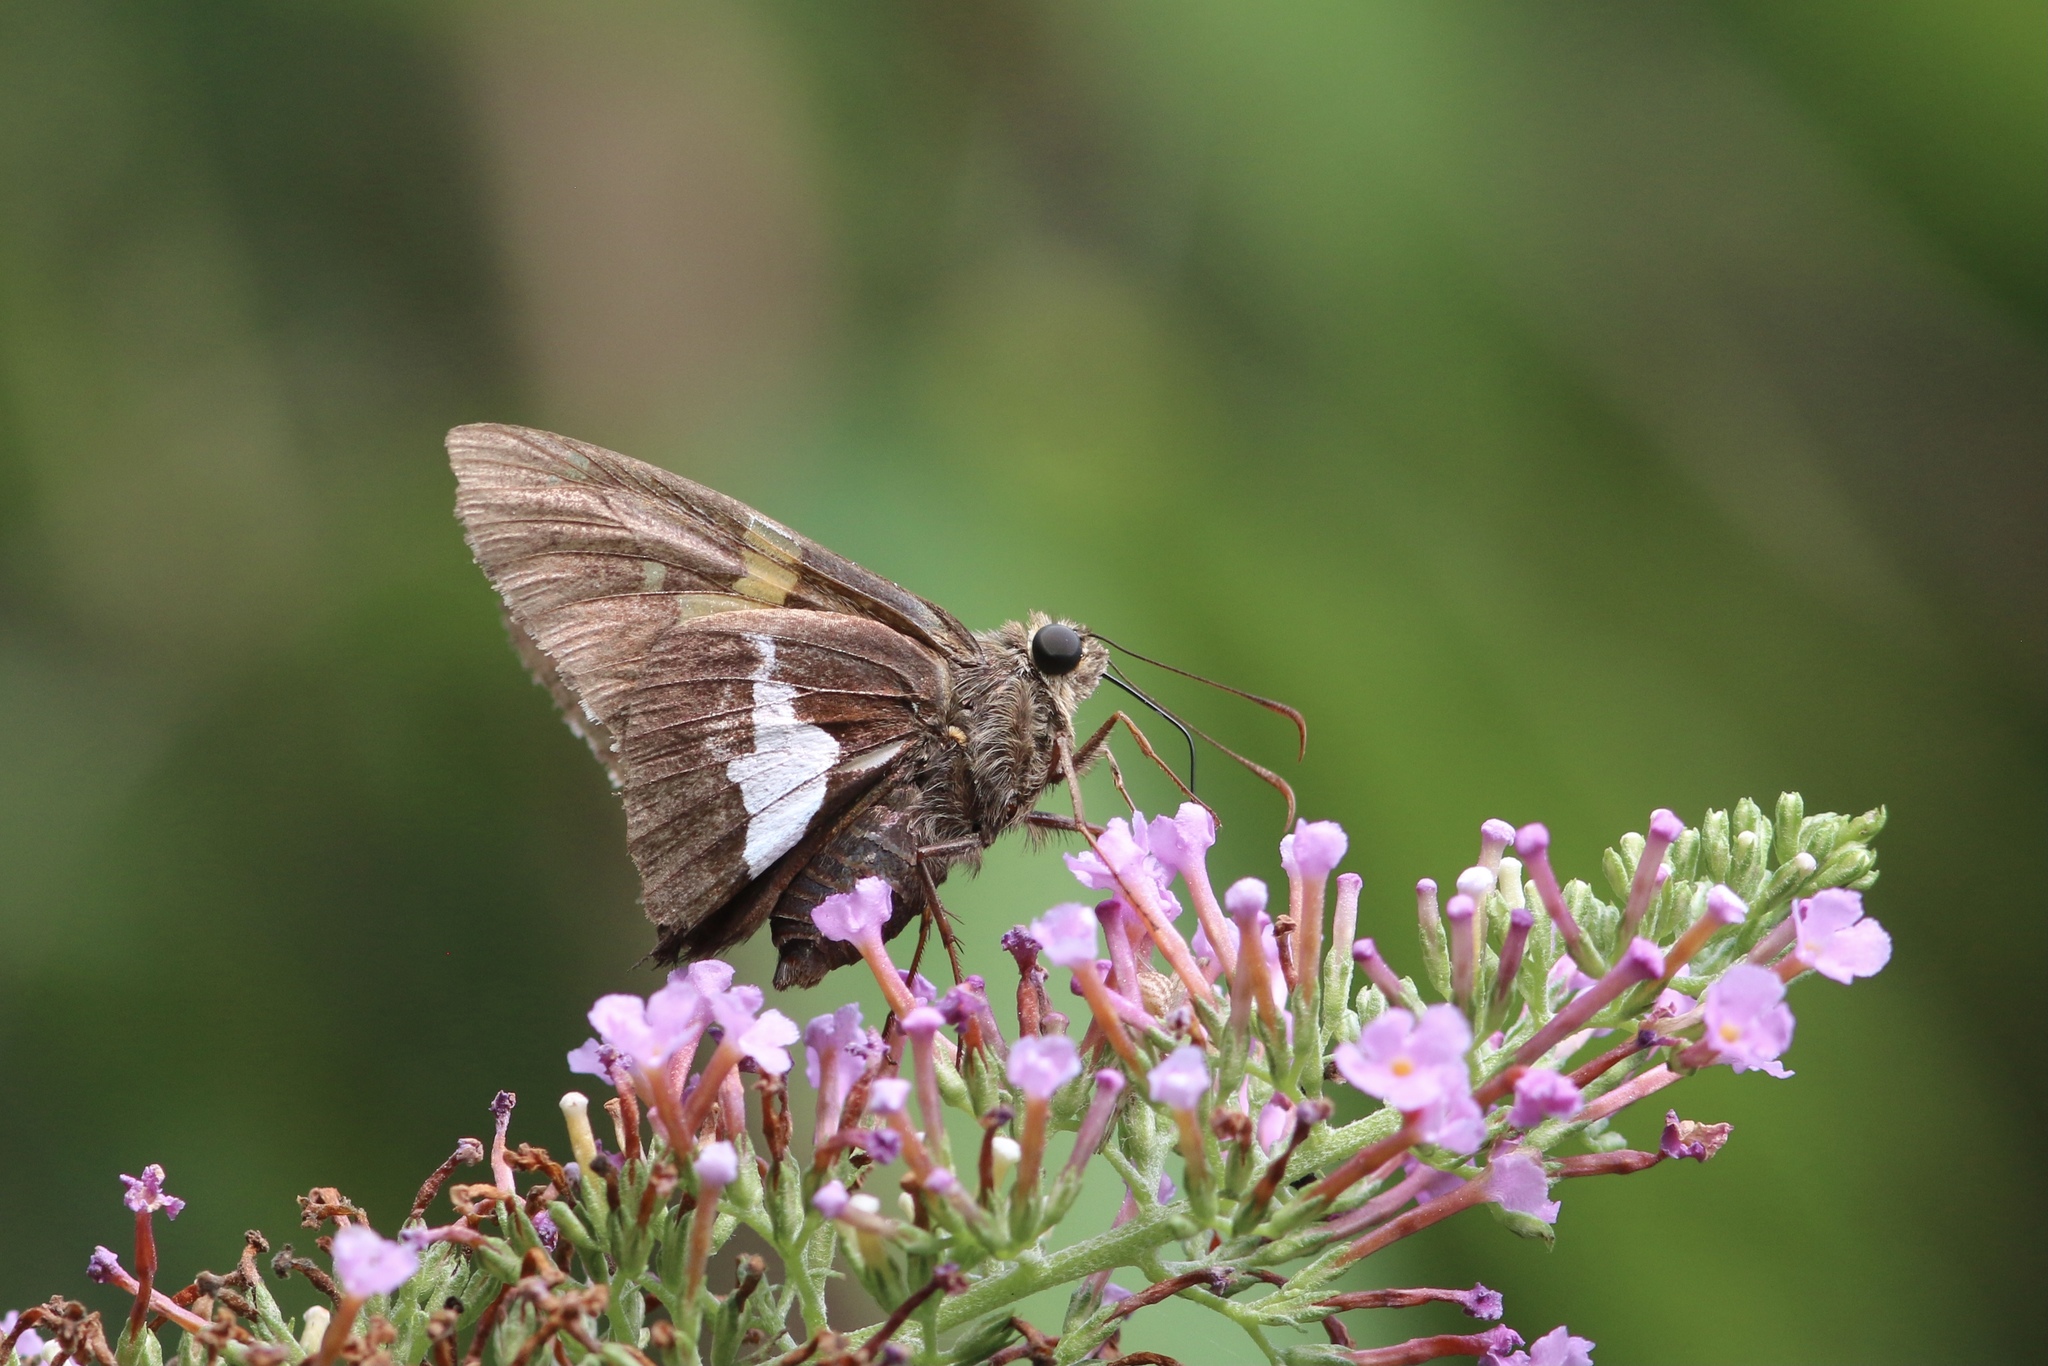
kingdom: Animalia
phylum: Arthropoda
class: Insecta
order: Lepidoptera
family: Hesperiidae
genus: Epargyreus
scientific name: Epargyreus clarus
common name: Silver-spotted skipper
